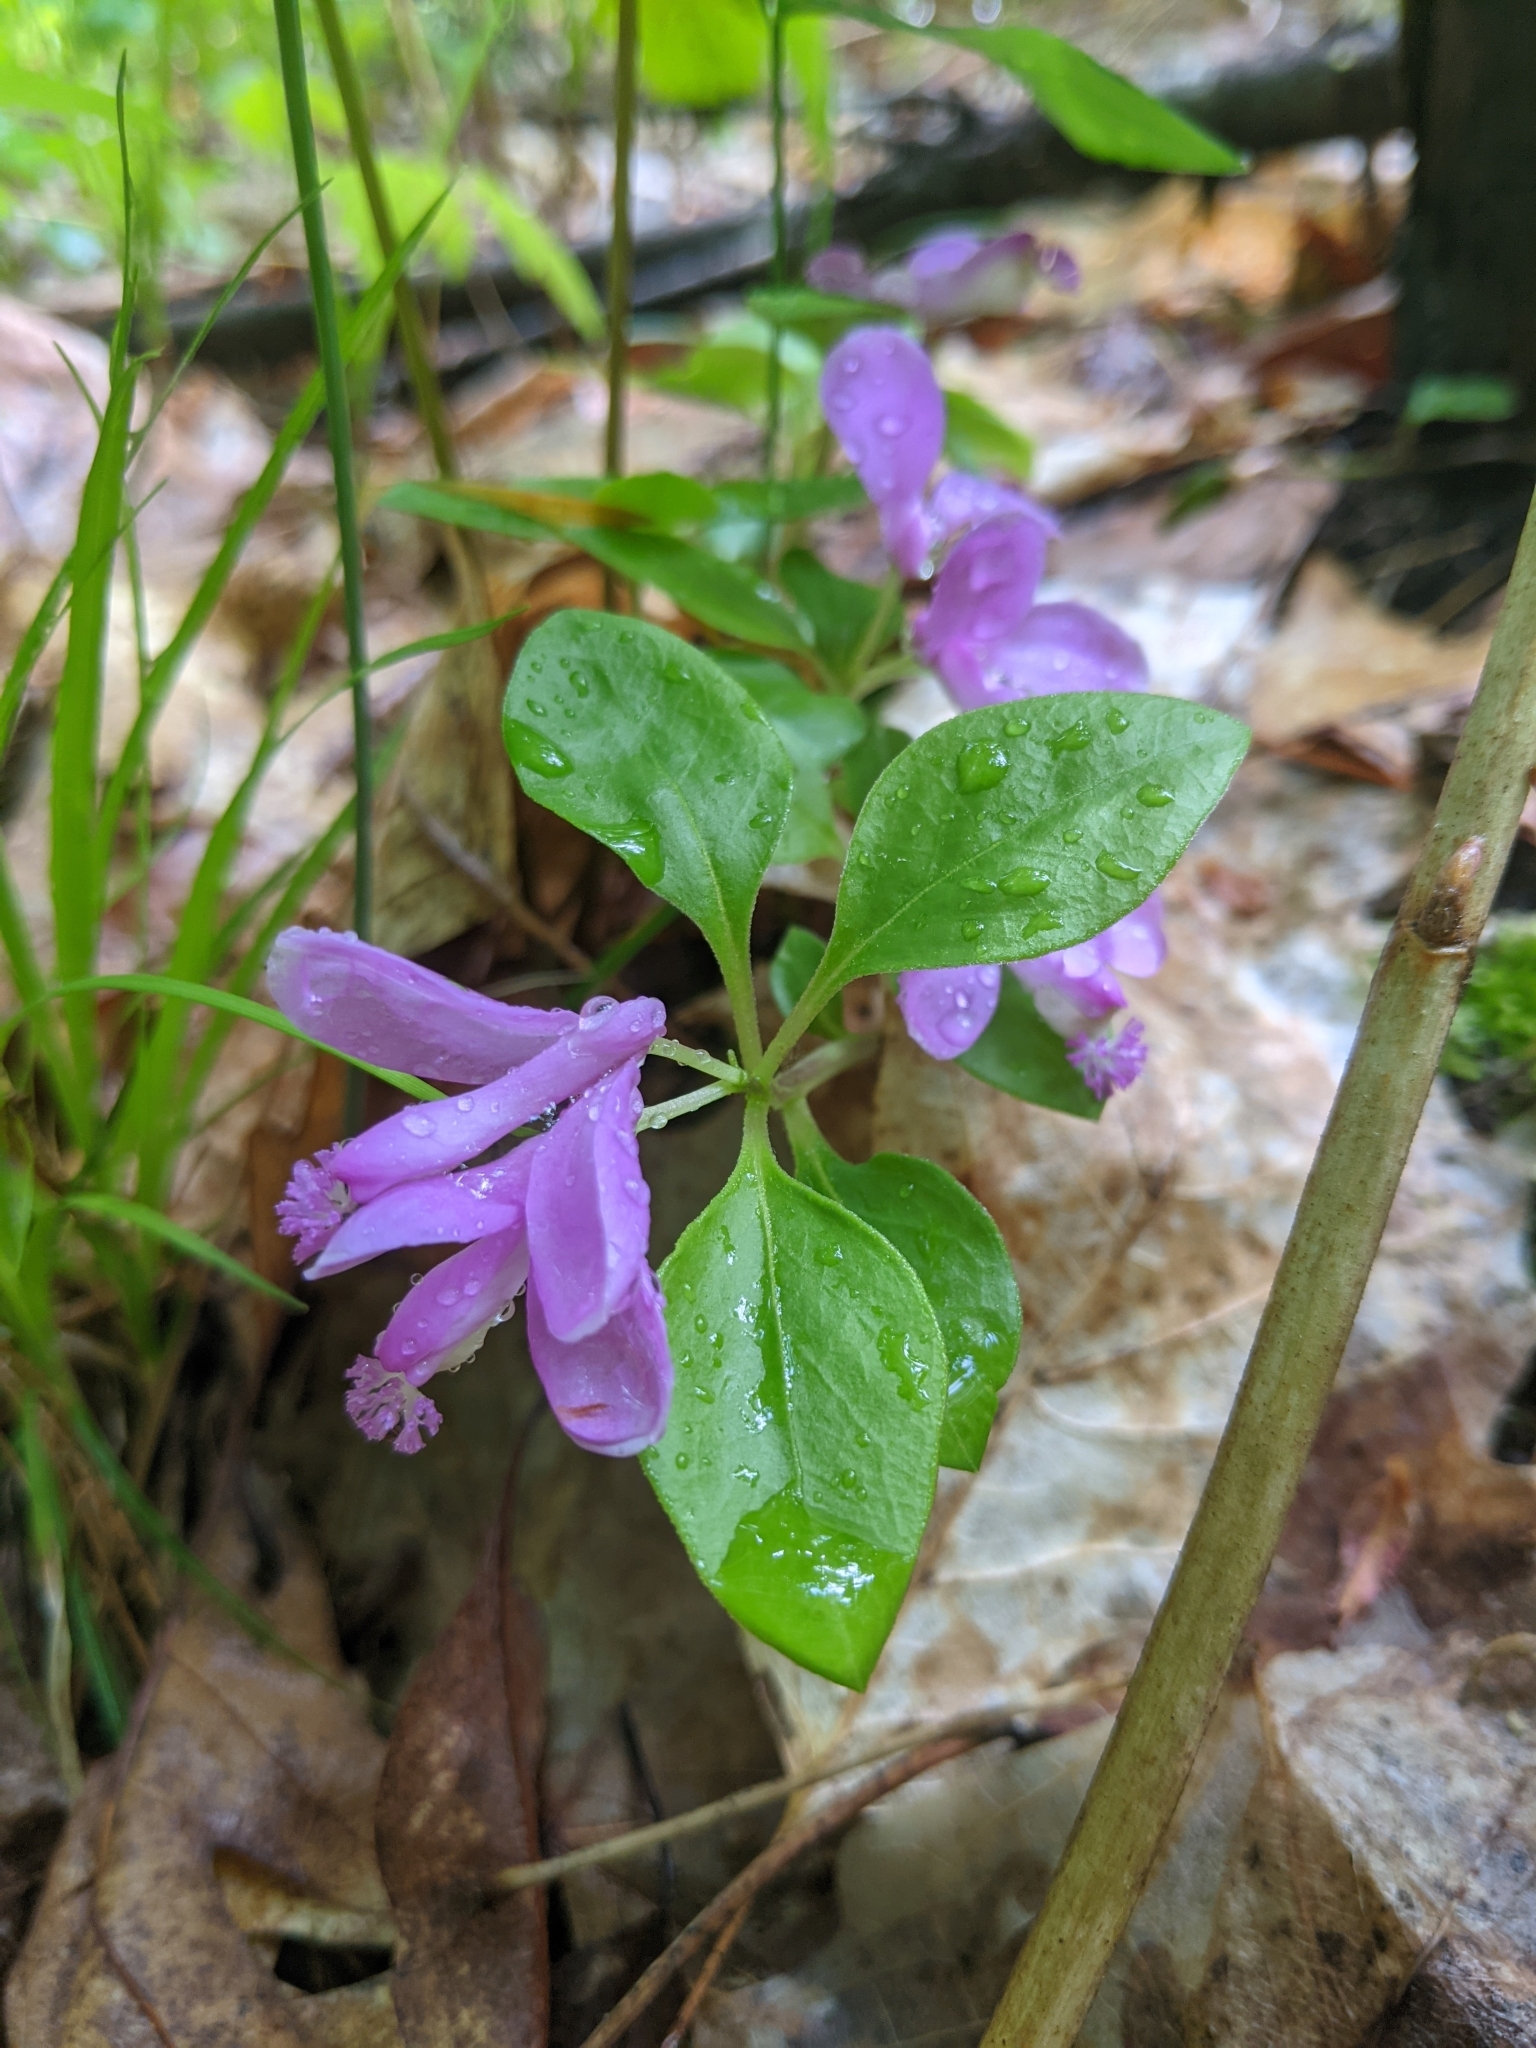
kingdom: Plantae
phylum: Tracheophyta
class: Magnoliopsida
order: Fabales
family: Polygalaceae
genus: Polygaloides
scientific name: Polygaloides paucifolia
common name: Bird-on-the-wing
